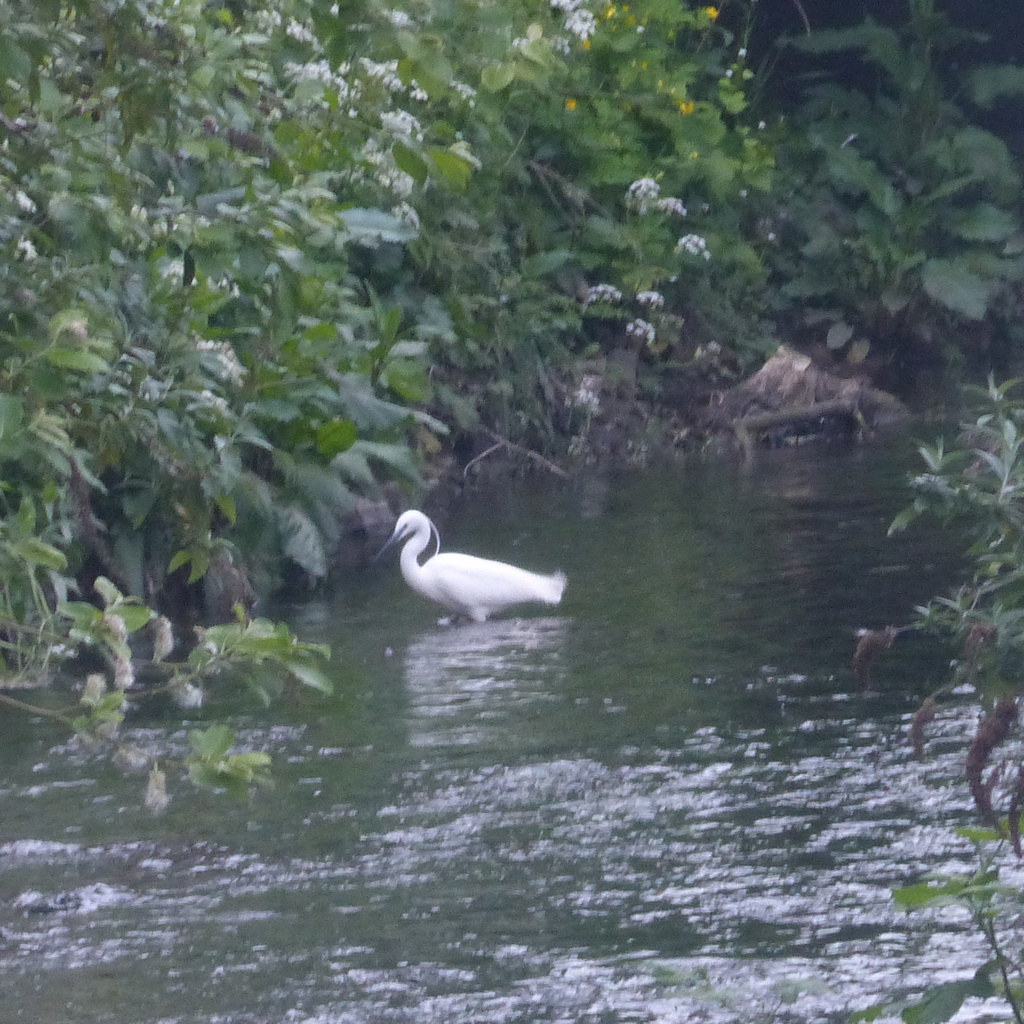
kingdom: Animalia
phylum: Chordata
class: Aves
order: Pelecaniformes
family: Ardeidae
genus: Egretta
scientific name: Egretta garzetta
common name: Little egret
